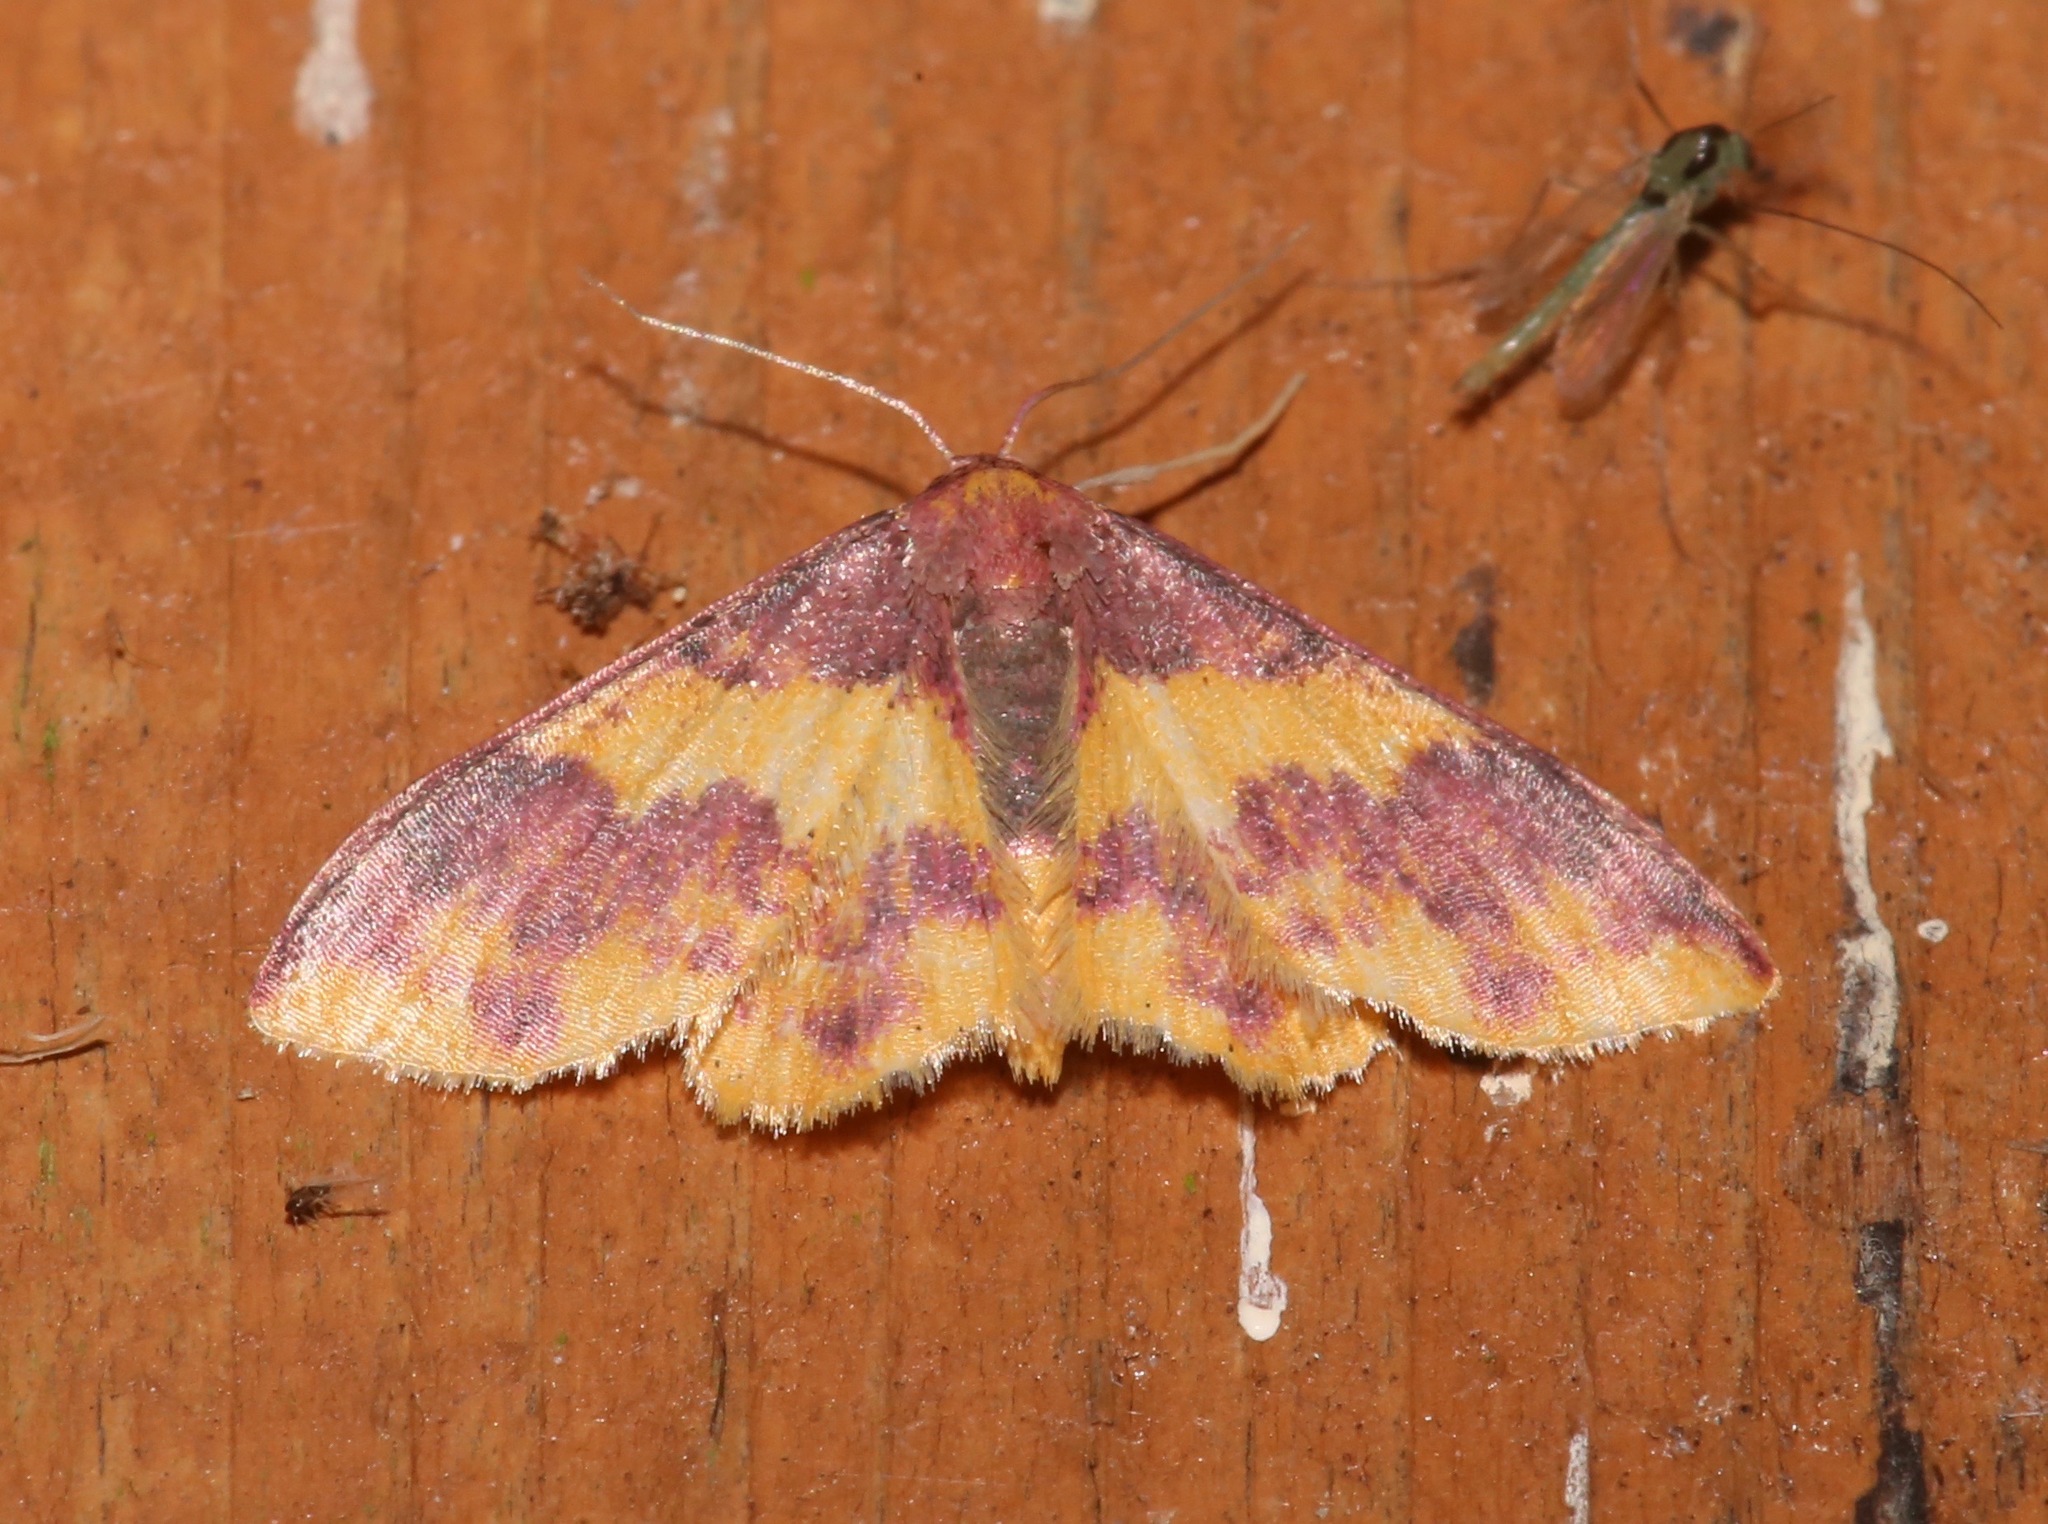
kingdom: Animalia
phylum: Arthropoda
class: Insecta
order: Lepidoptera
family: Geometridae
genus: Lophosis
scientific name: Lophosis labeculata
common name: Stained lophosis moth
